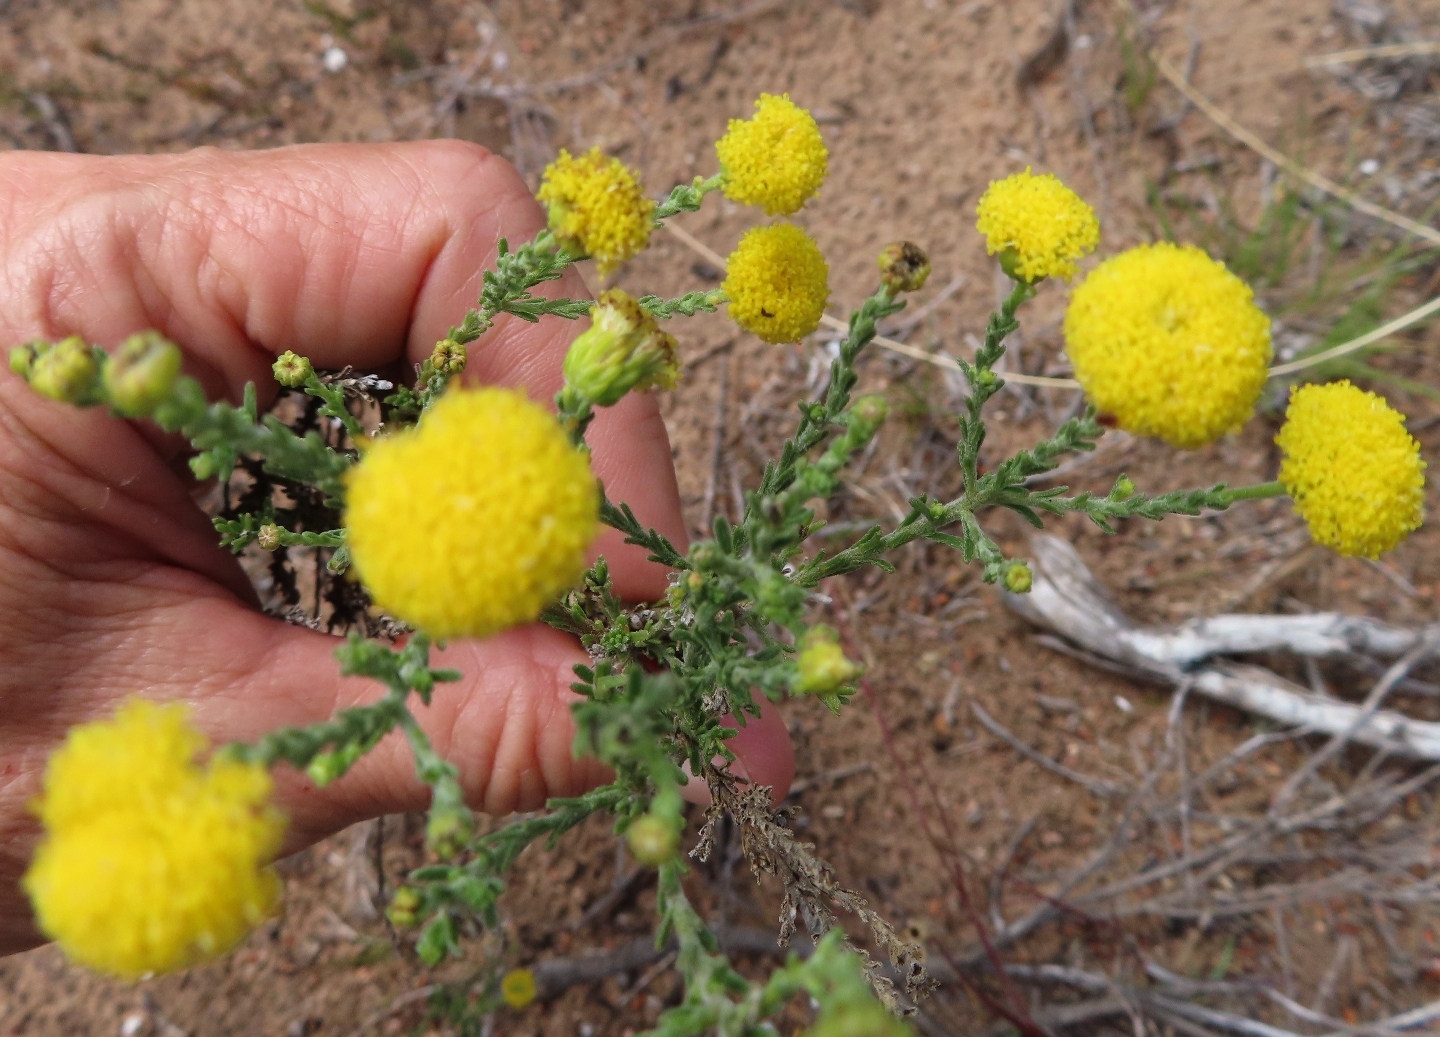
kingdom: Plantae
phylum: Tracheophyta
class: Magnoliopsida
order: Asterales
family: Asteraceae
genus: Chrysocoma
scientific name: Chrysocoma strigosa
